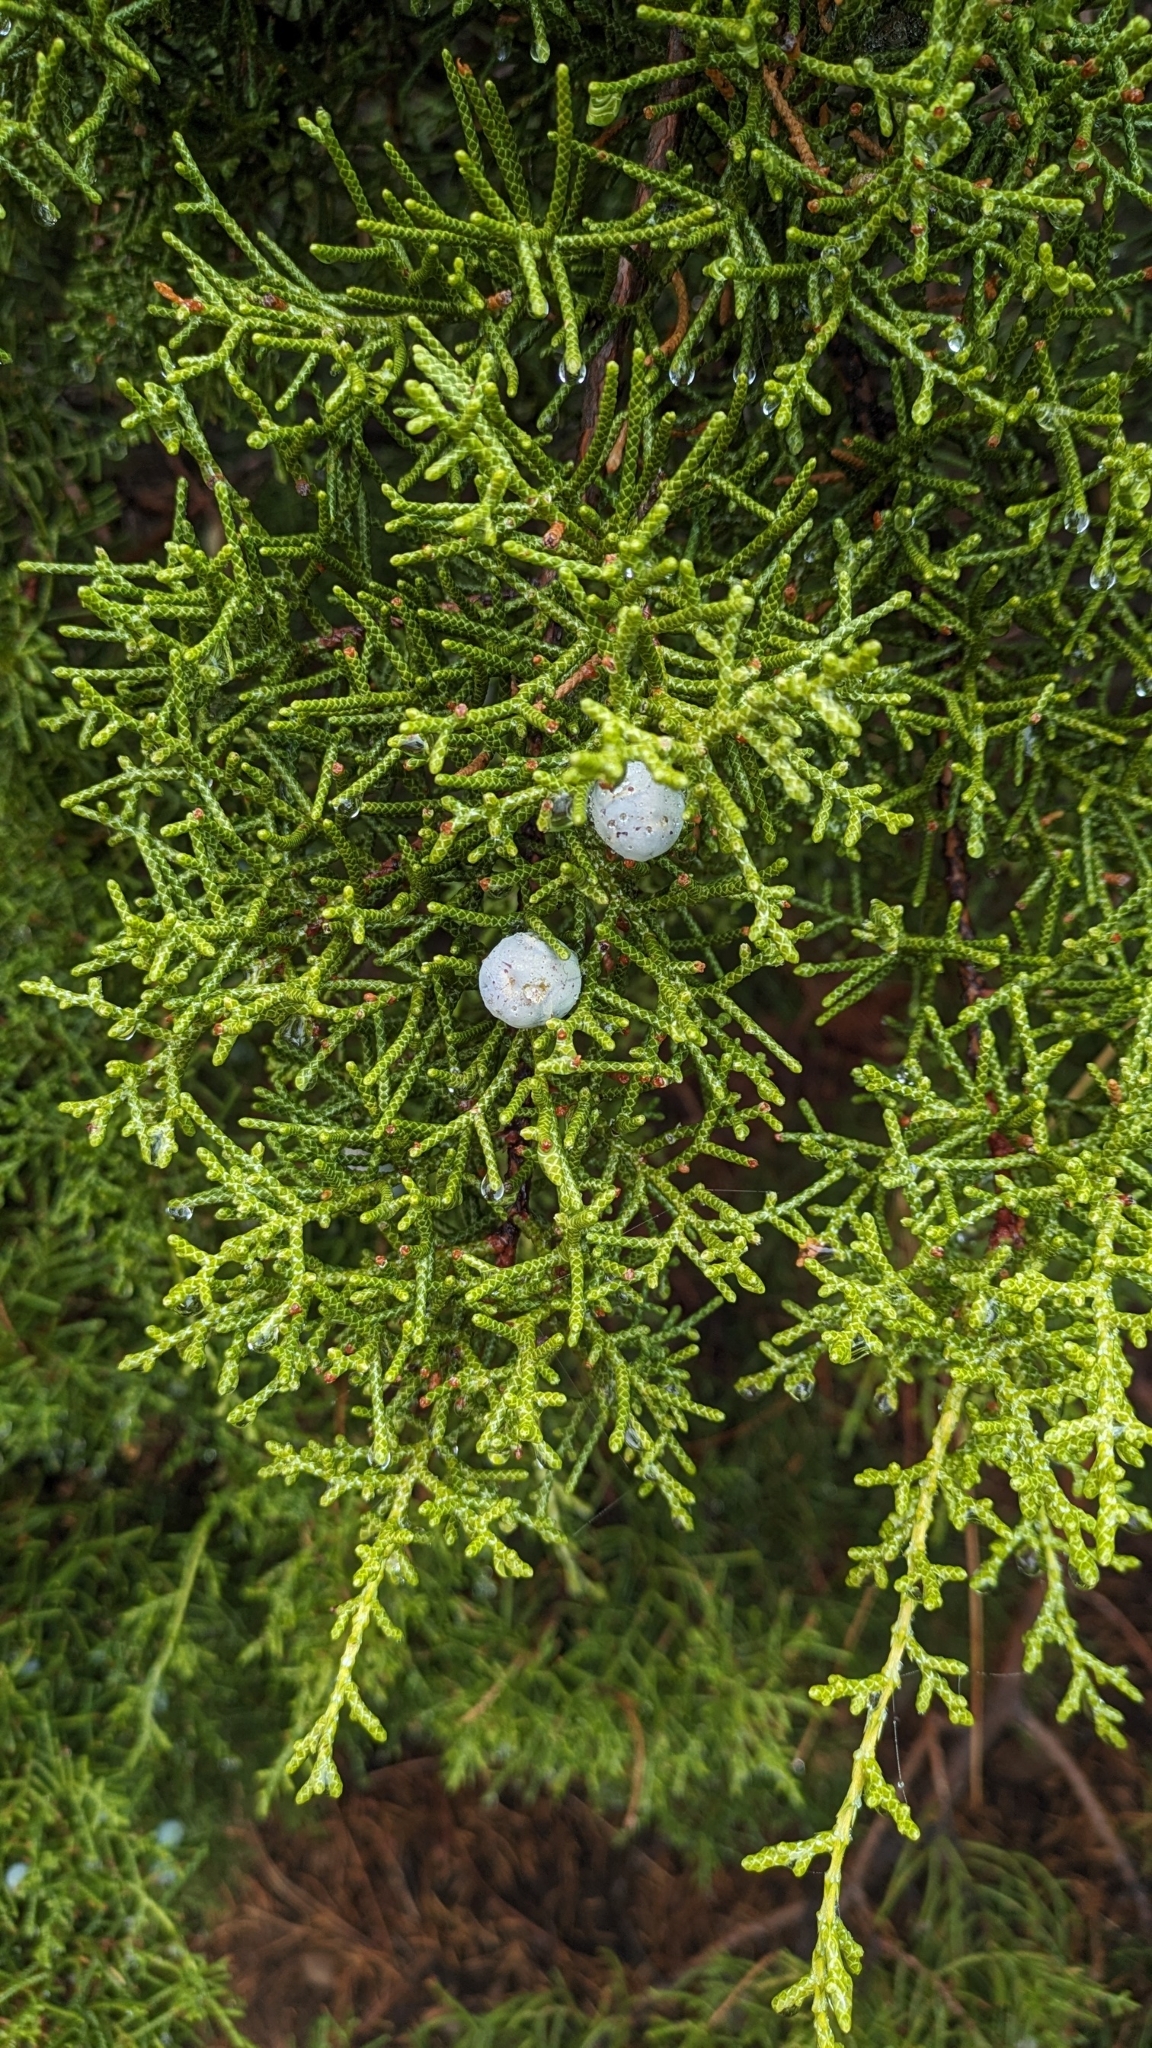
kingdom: Plantae
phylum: Tracheophyta
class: Pinopsida
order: Pinales
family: Cupressaceae
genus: Juniperus
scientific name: Juniperus californica
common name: California juniper
